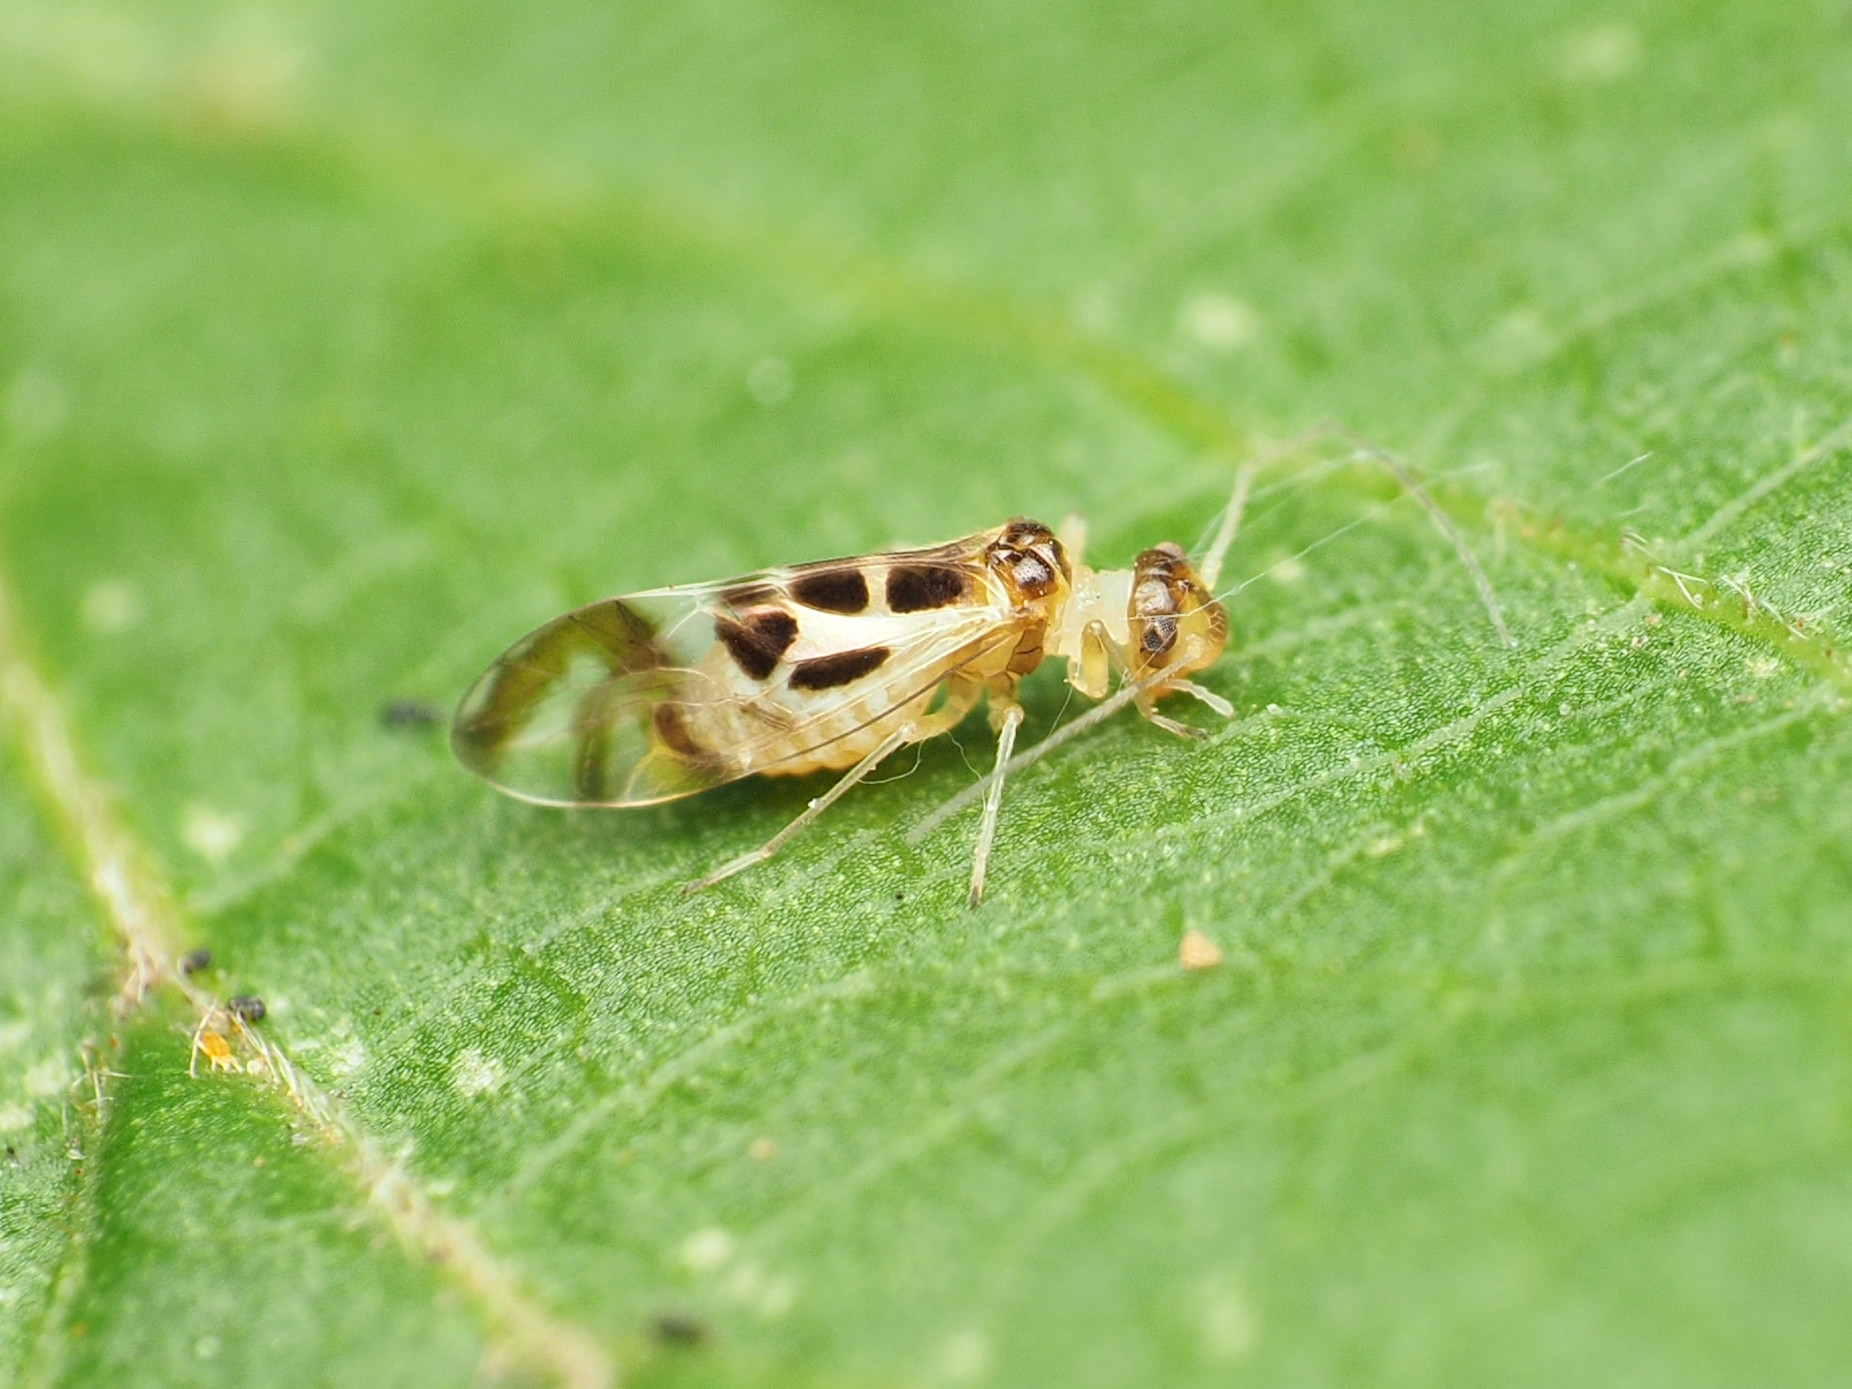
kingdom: Animalia
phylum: Arthropoda
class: Insecta
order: Psocodea
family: Stenopsocidae
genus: Graphopsocus
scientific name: Graphopsocus cruciatus
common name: Lizard bark louse
